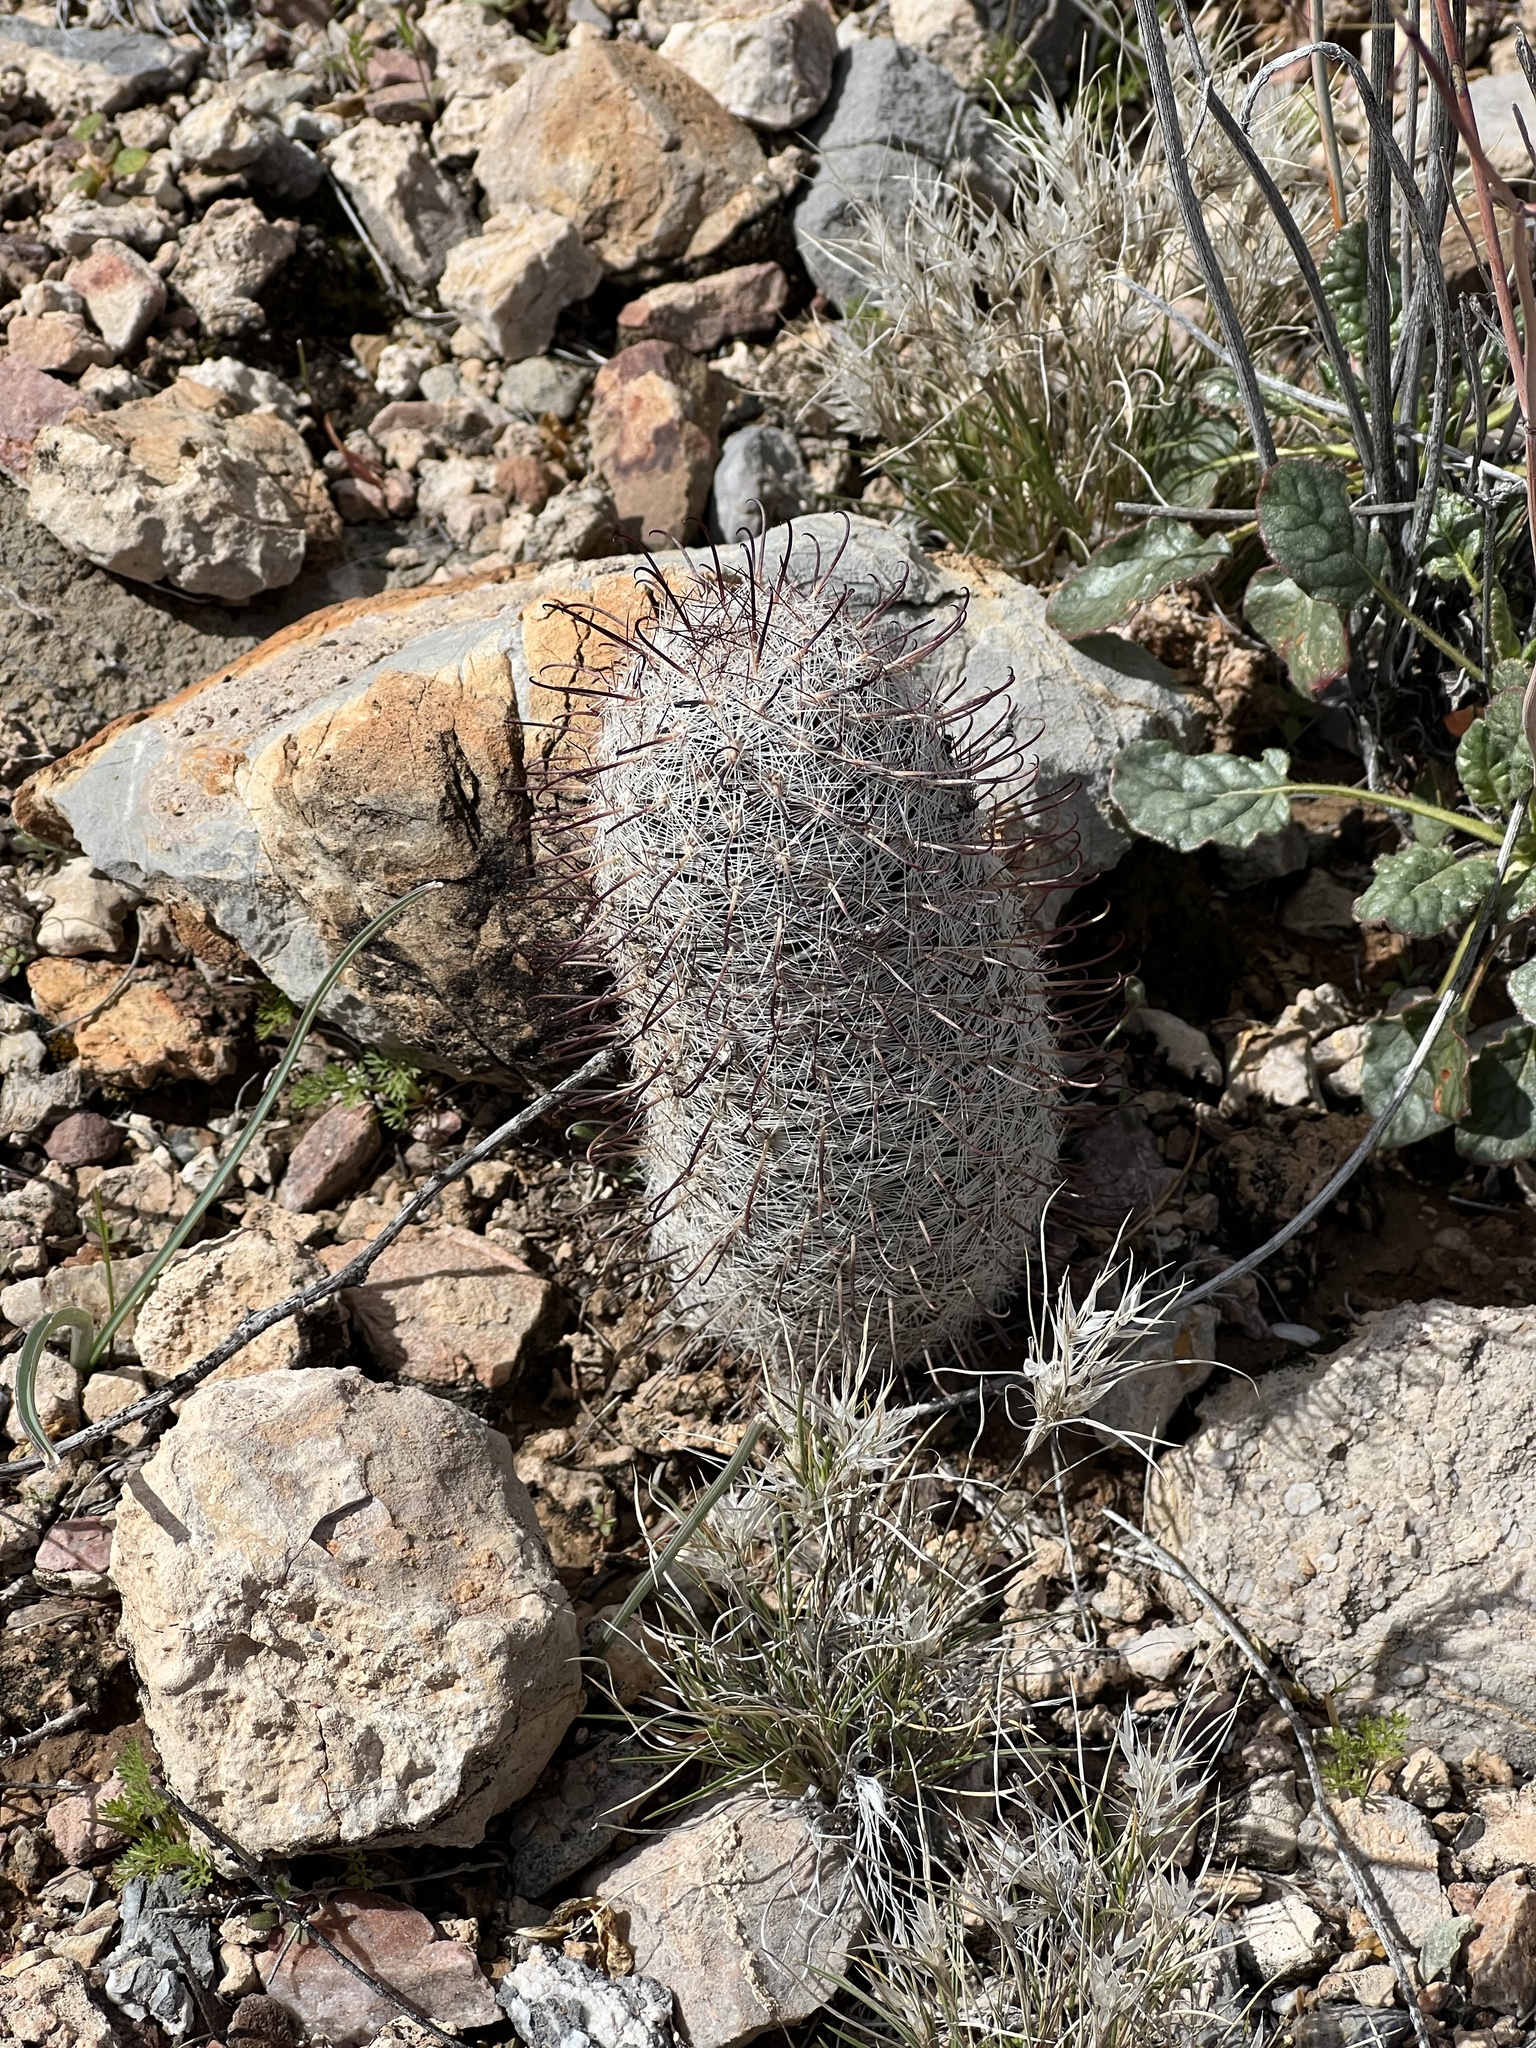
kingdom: Plantae
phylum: Tracheophyta
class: Magnoliopsida
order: Caryophyllales
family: Cactaceae
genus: Cochemiea
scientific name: Cochemiea grahamii
